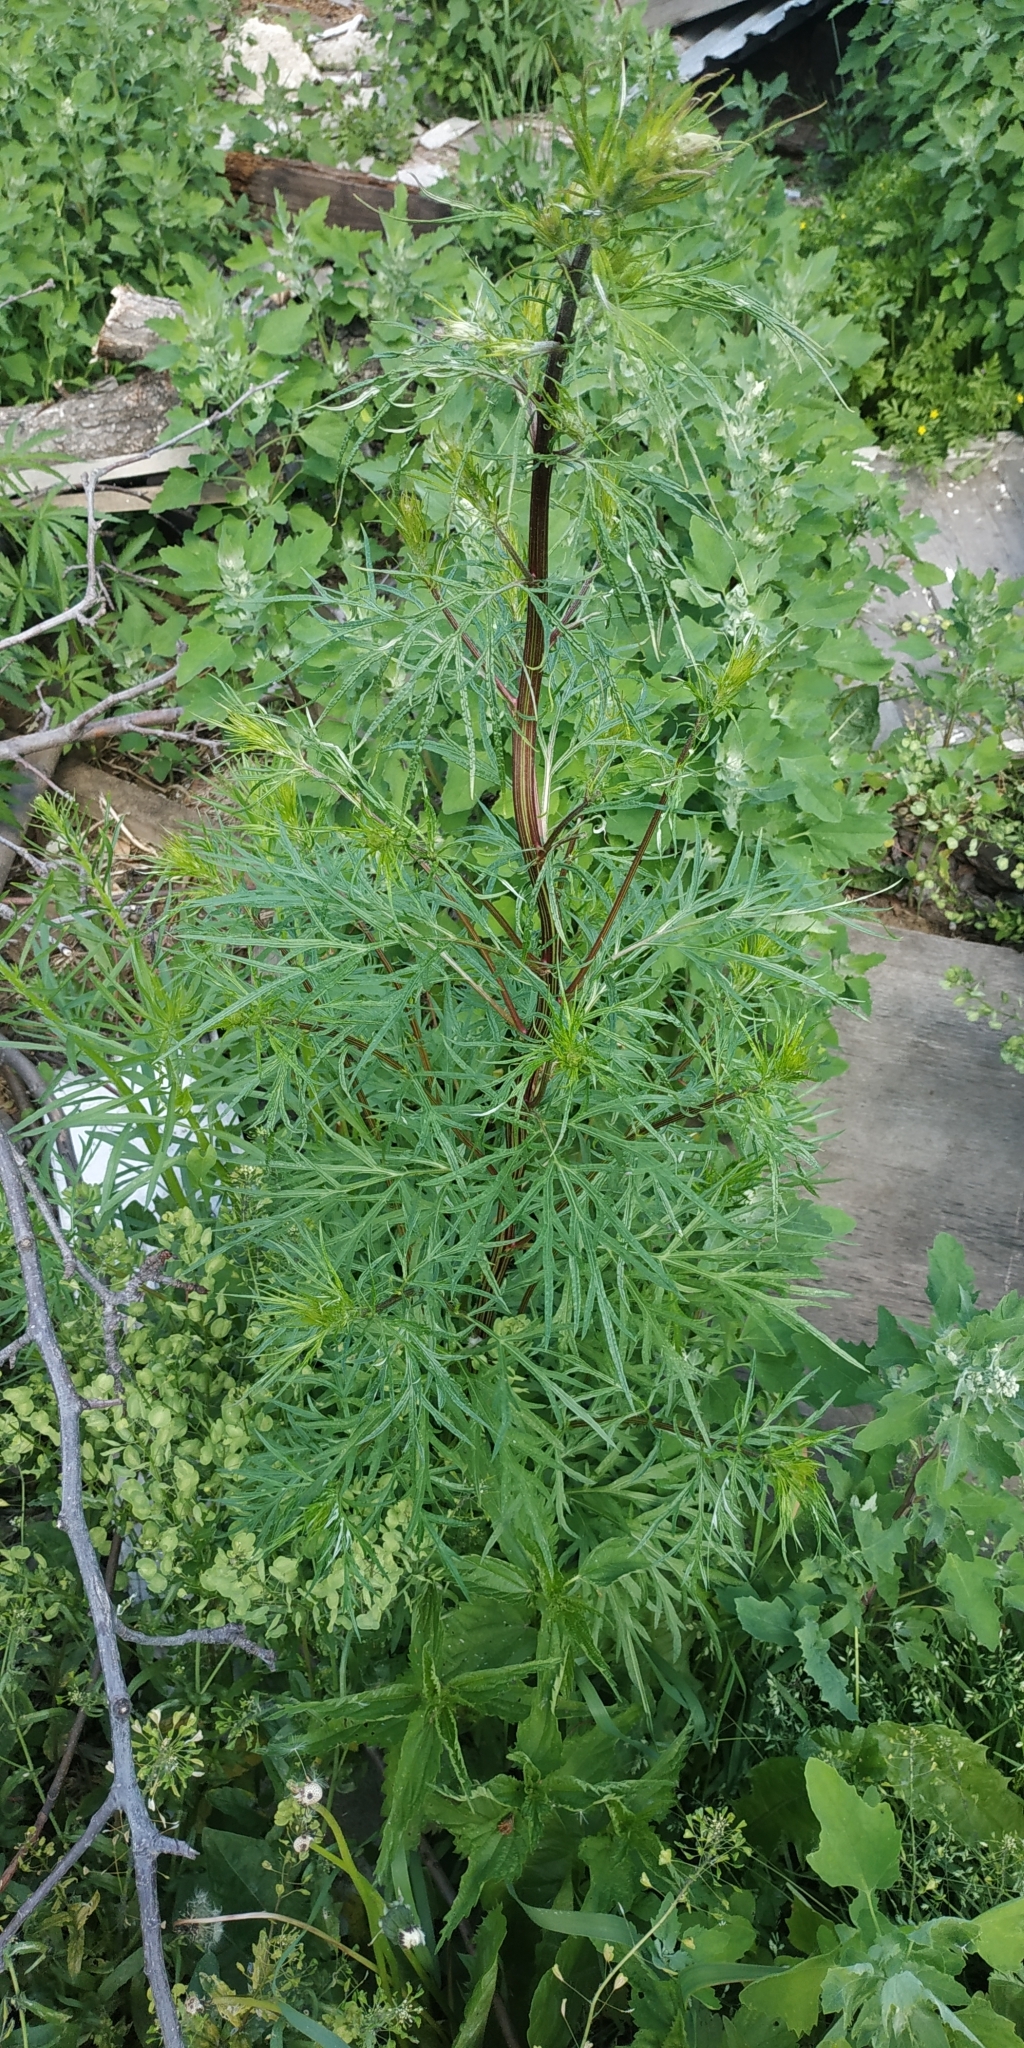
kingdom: Plantae
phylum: Tracheophyta
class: Magnoliopsida
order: Asterales
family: Asteraceae
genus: Artemisia
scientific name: Artemisia vulgaris
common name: Mugwort
